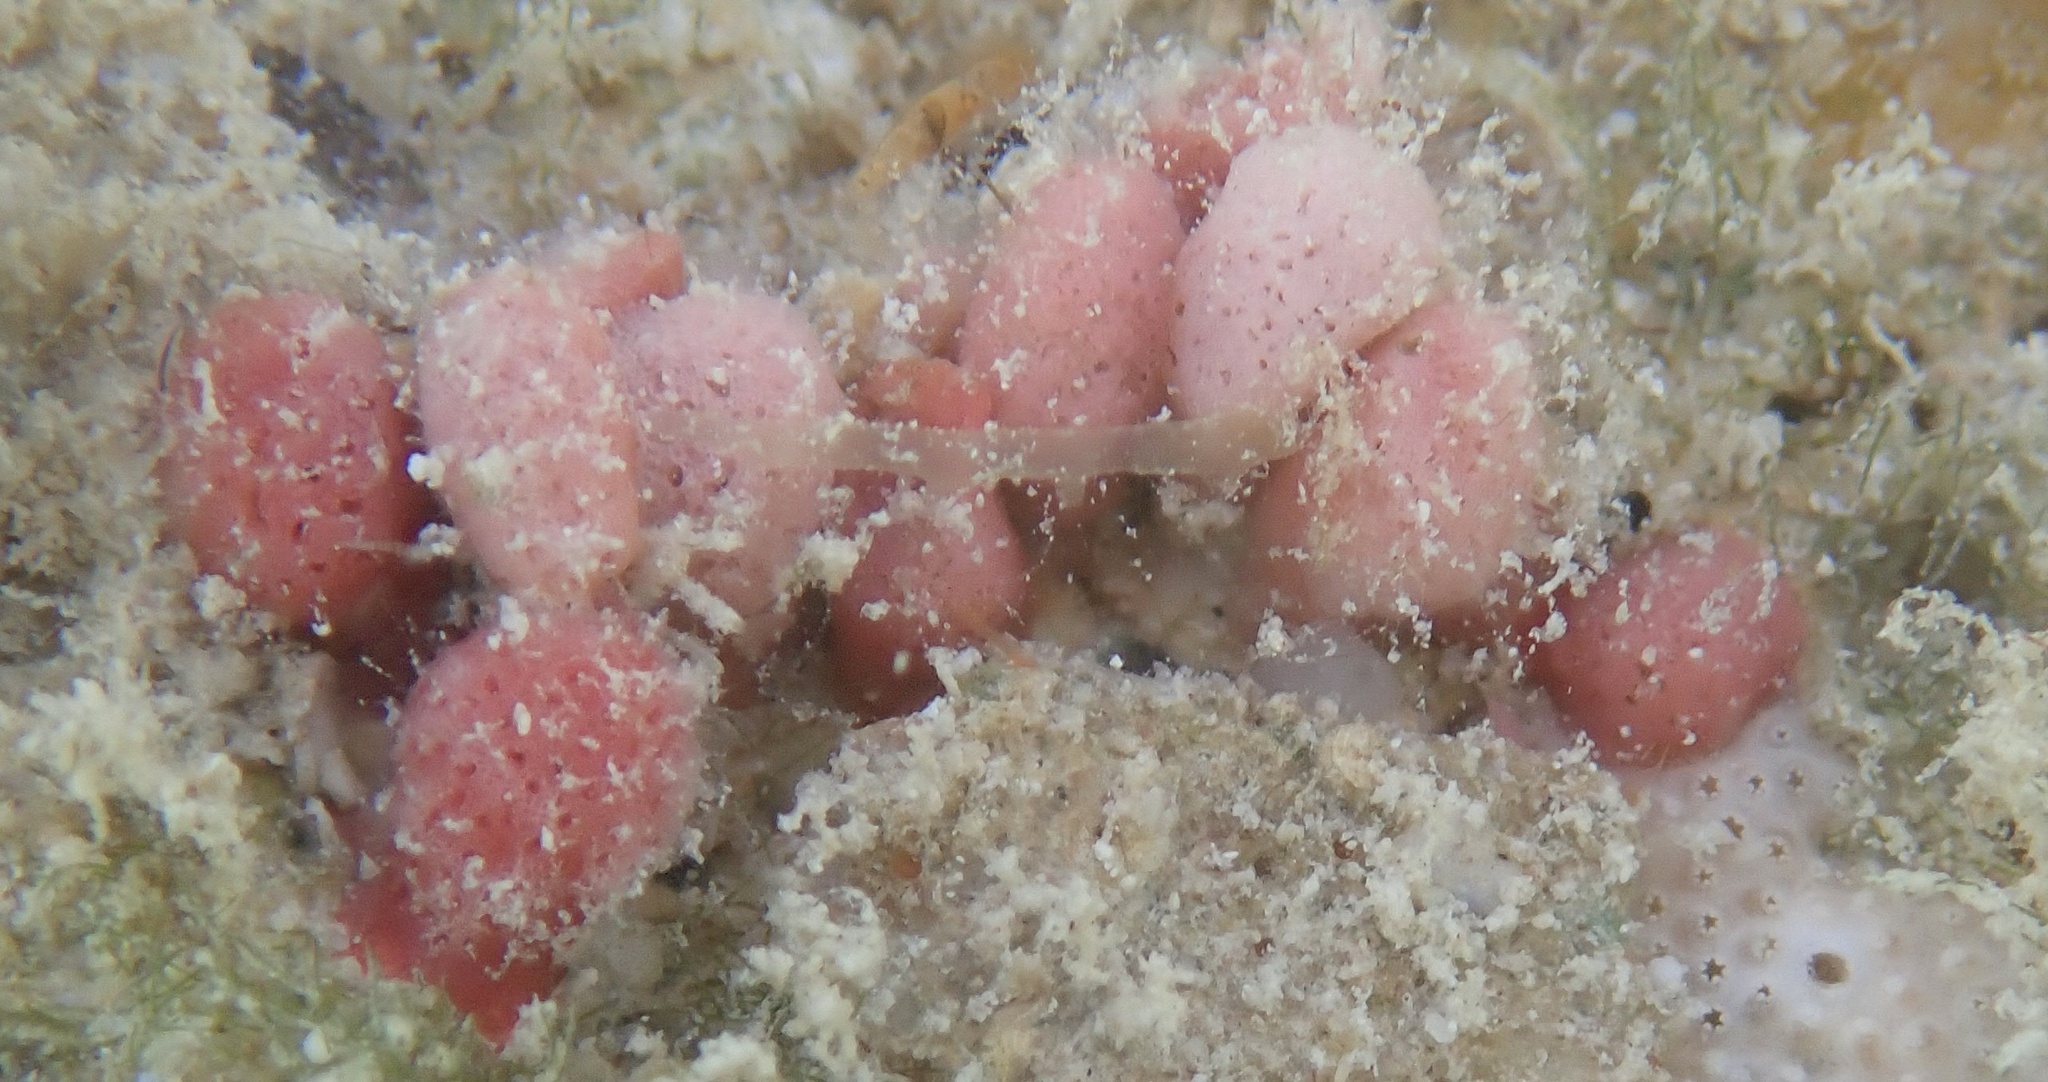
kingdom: Chromista
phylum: Foraminifera
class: Globothalamea
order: Rotaliida
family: Homotrematidae
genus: Homotrema
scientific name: Homotrema rubrum
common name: Red foram
